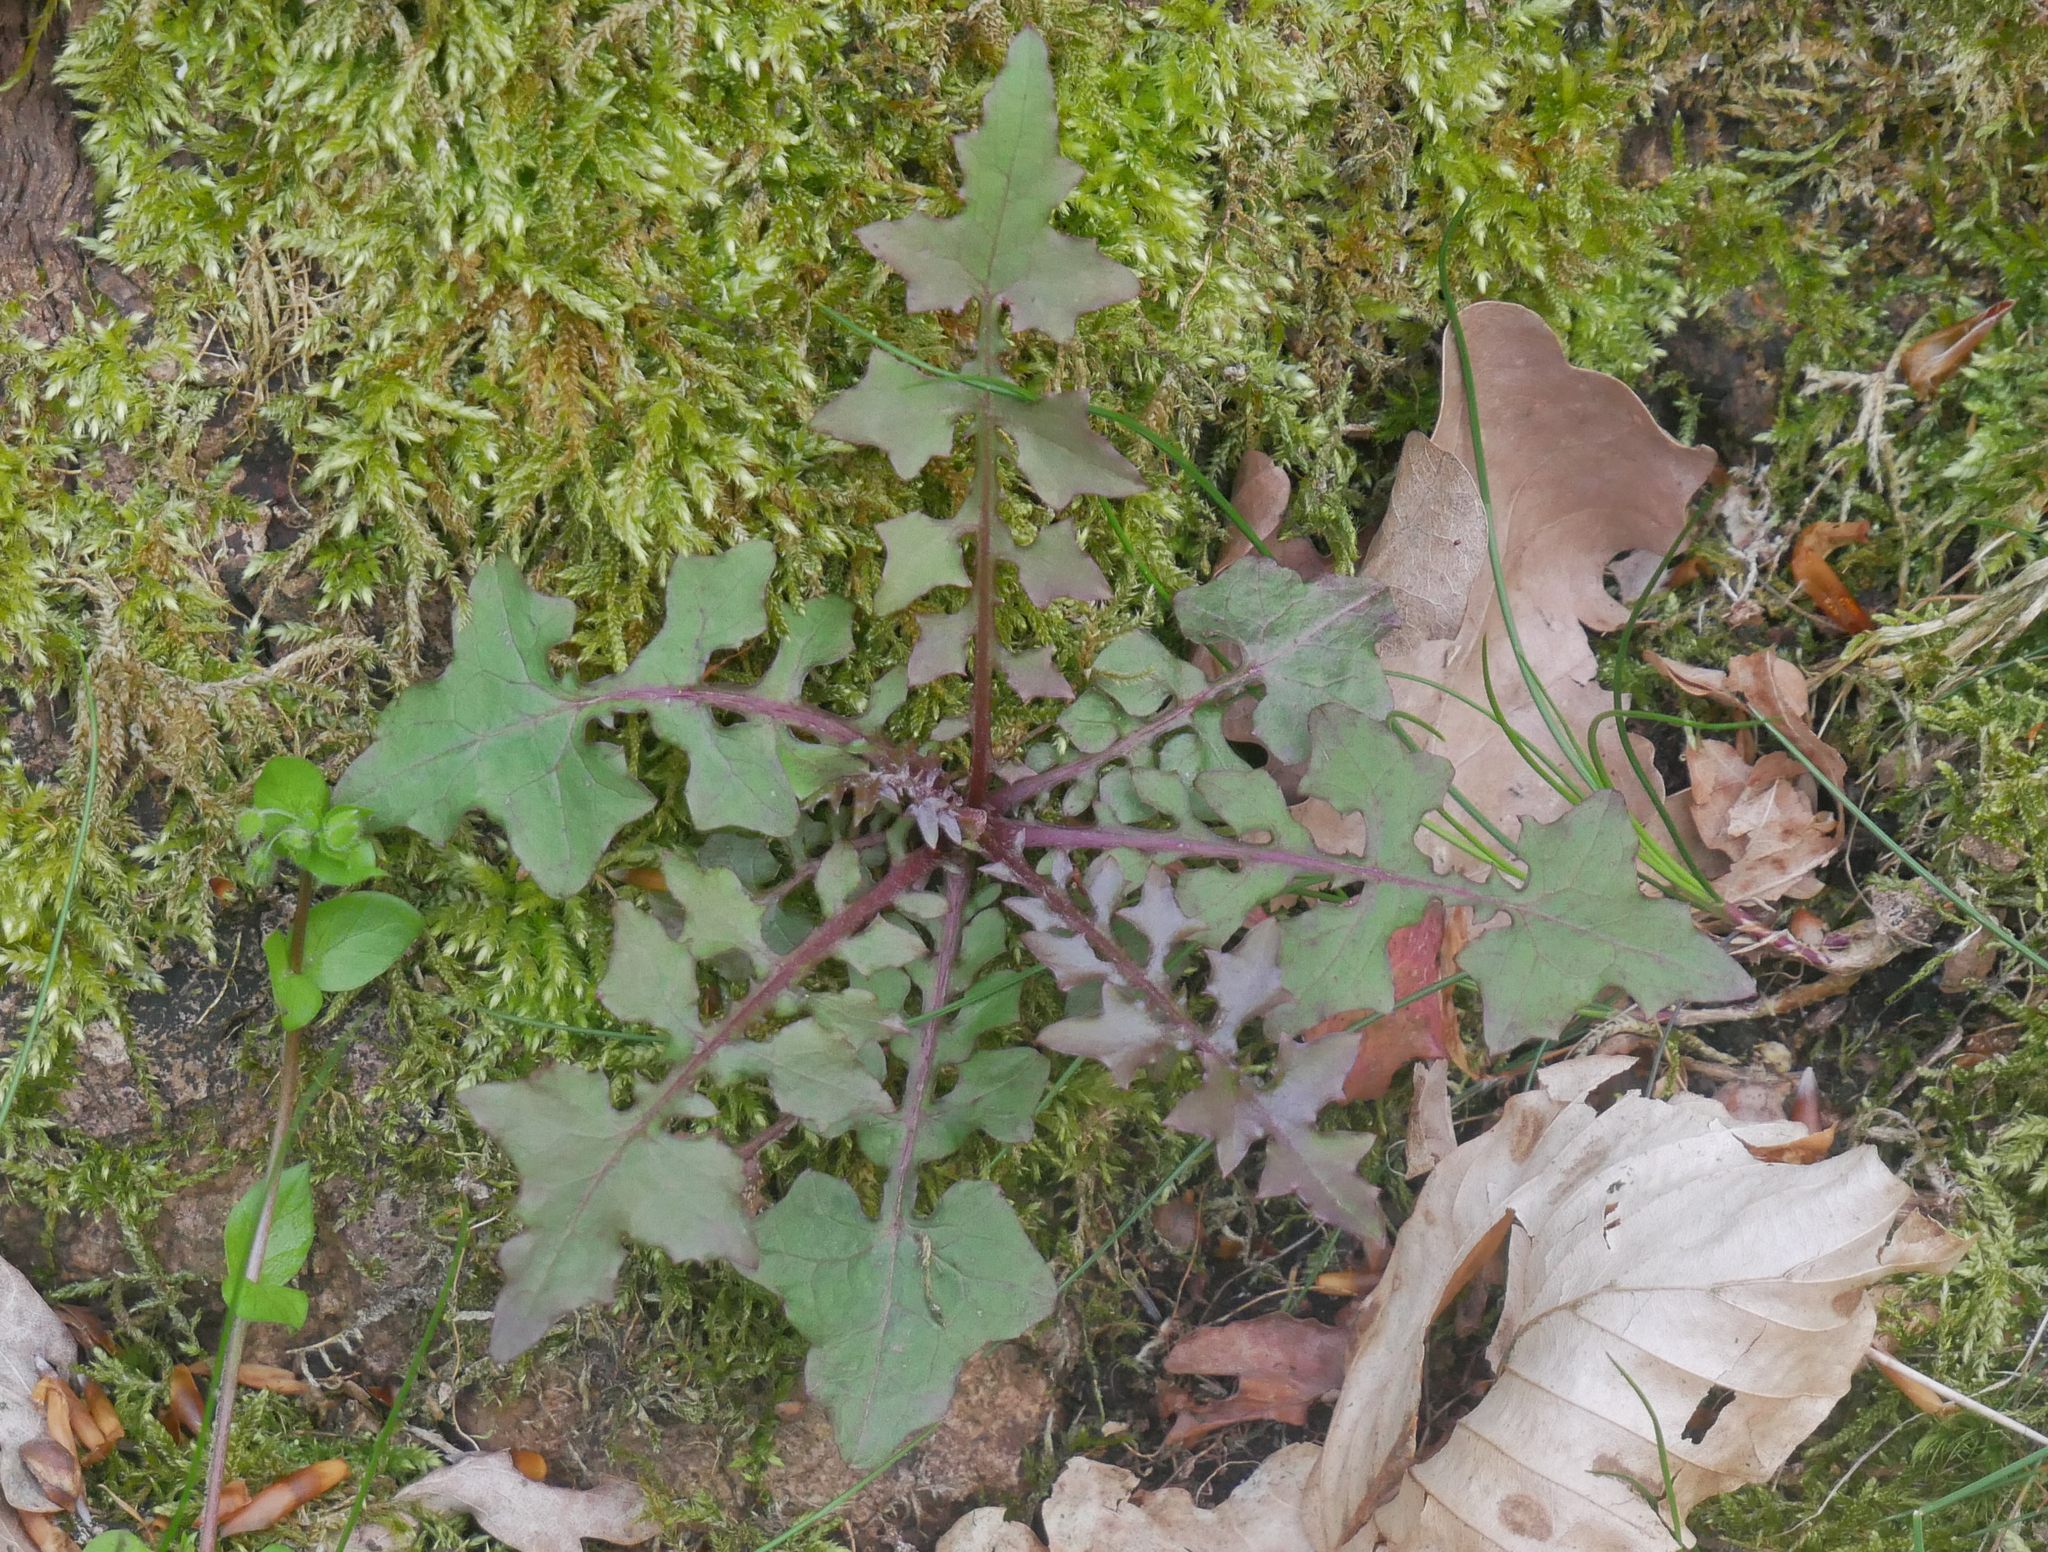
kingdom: Plantae
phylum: Tracheophyta
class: Magnoliopsida
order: Asterales
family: Asteraceae
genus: Mycelis
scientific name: Mycelis muralis
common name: Wall lettuce
